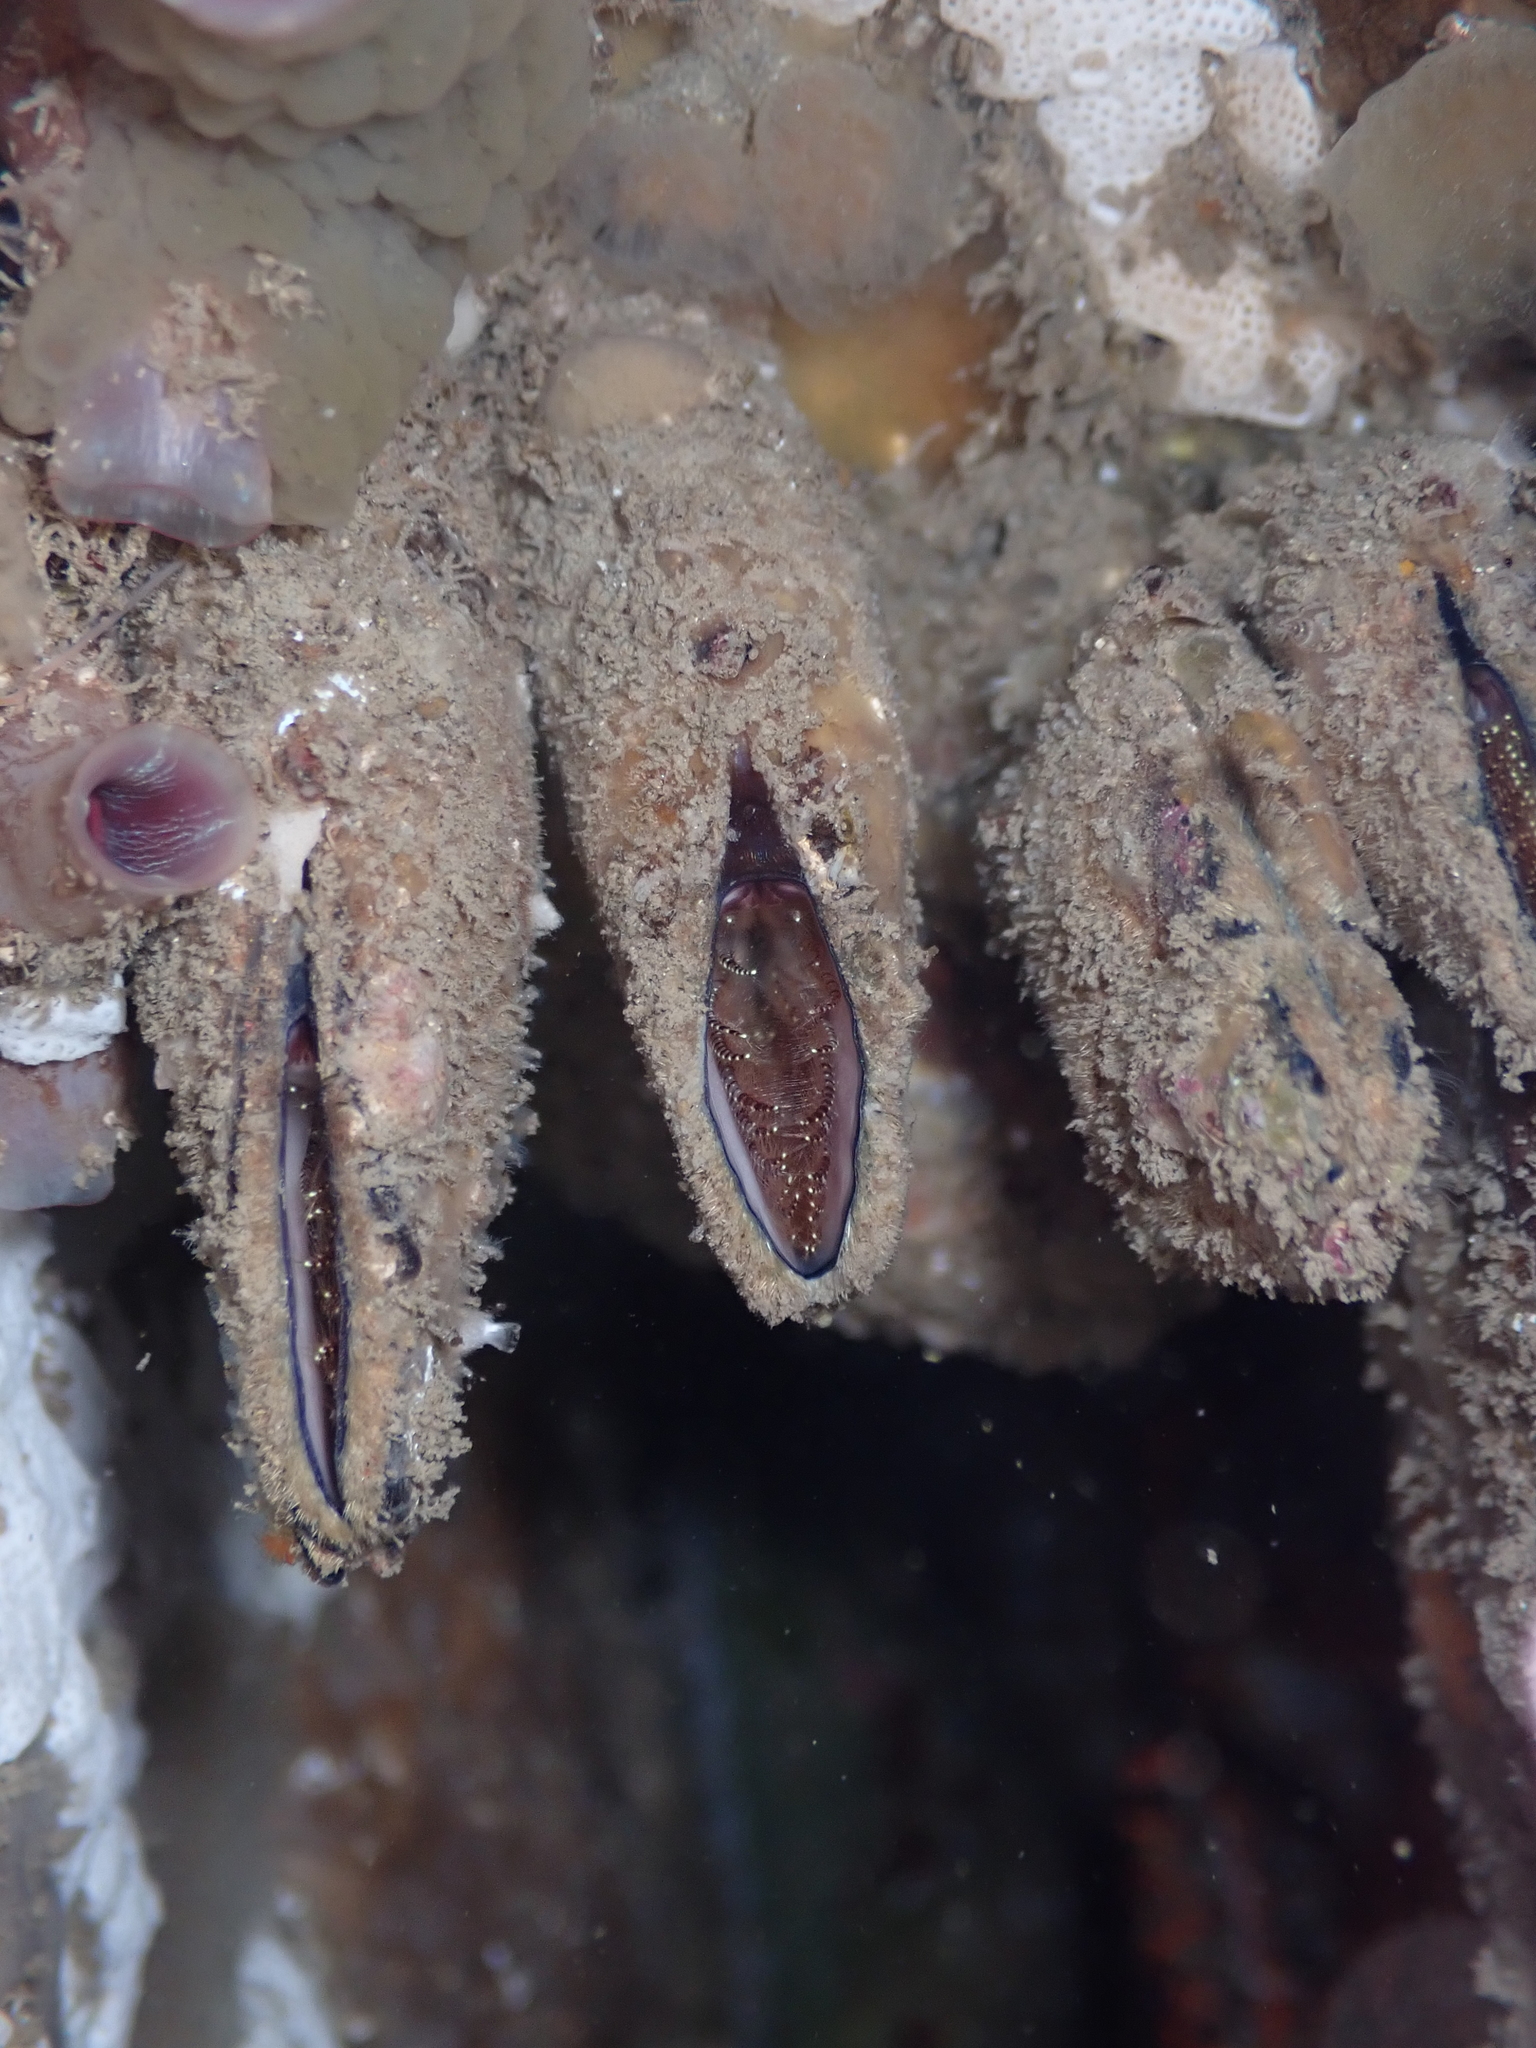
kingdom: Animalia
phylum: Arthropoda
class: Maxillopoda
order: Pedunculata
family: Calanticidae
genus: Calantica
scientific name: Calantica villosa
